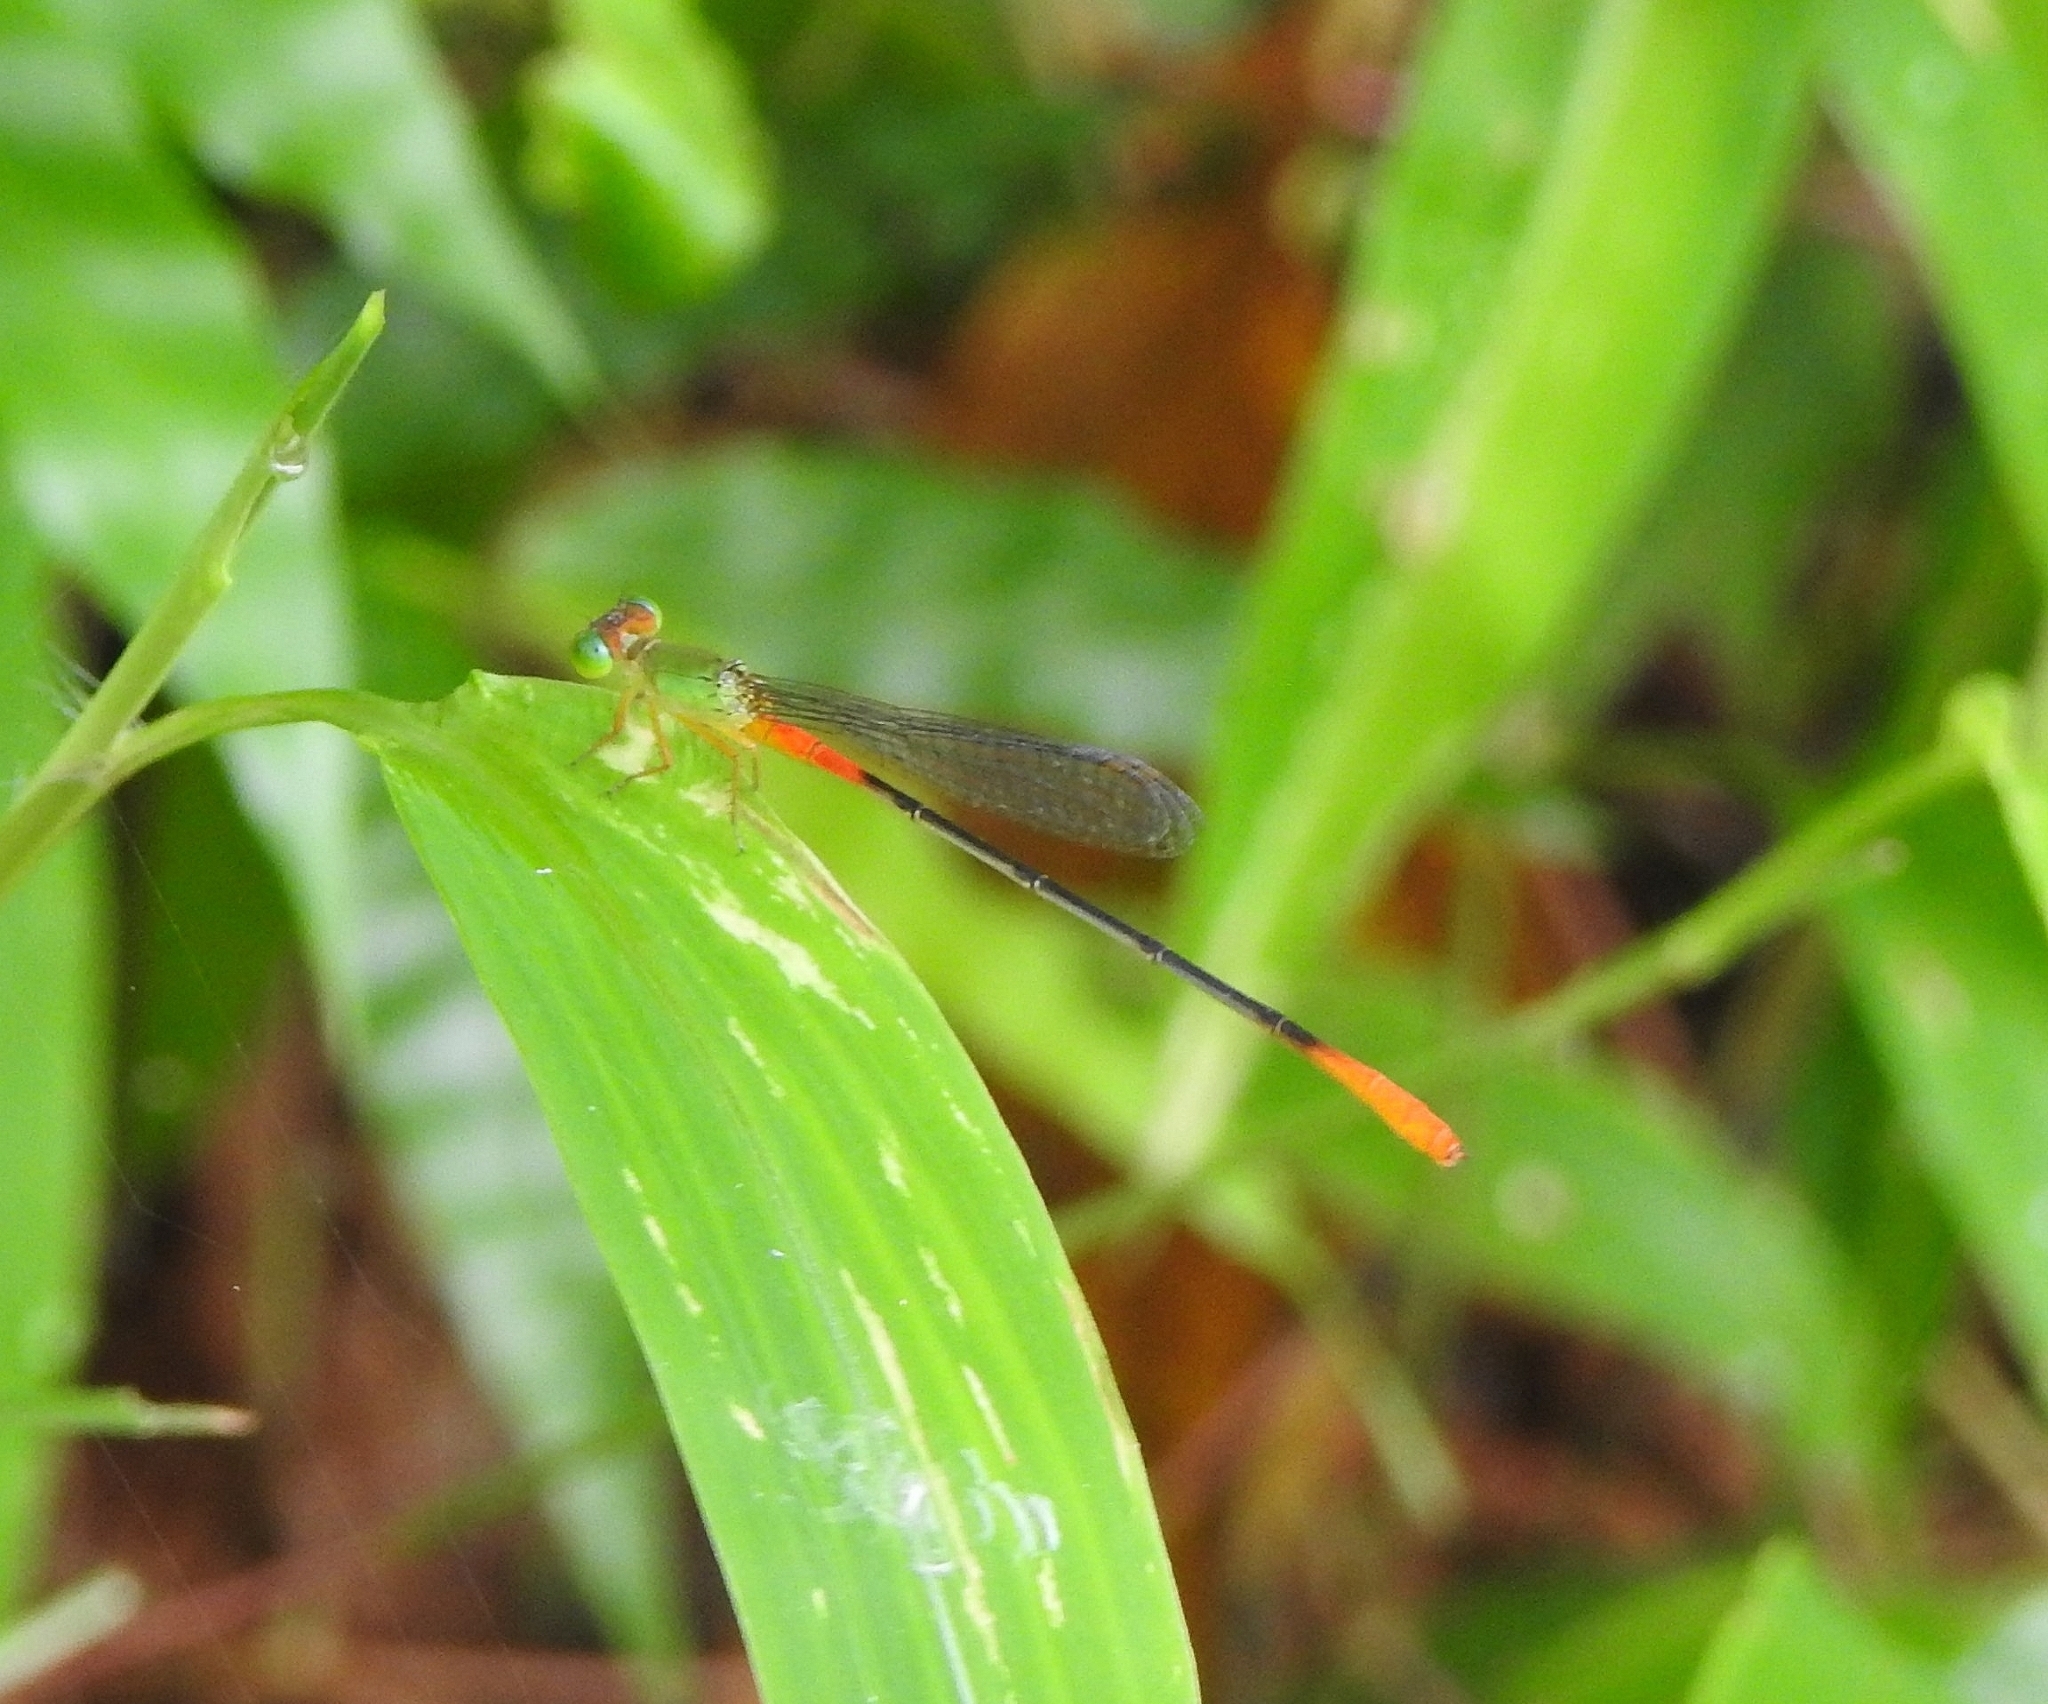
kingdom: Animalia
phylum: Arthropoda
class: Insecta
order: Odonata
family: Coenagrionidae
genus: Ceriagrion
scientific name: Ceriagrion cerinorubellum
